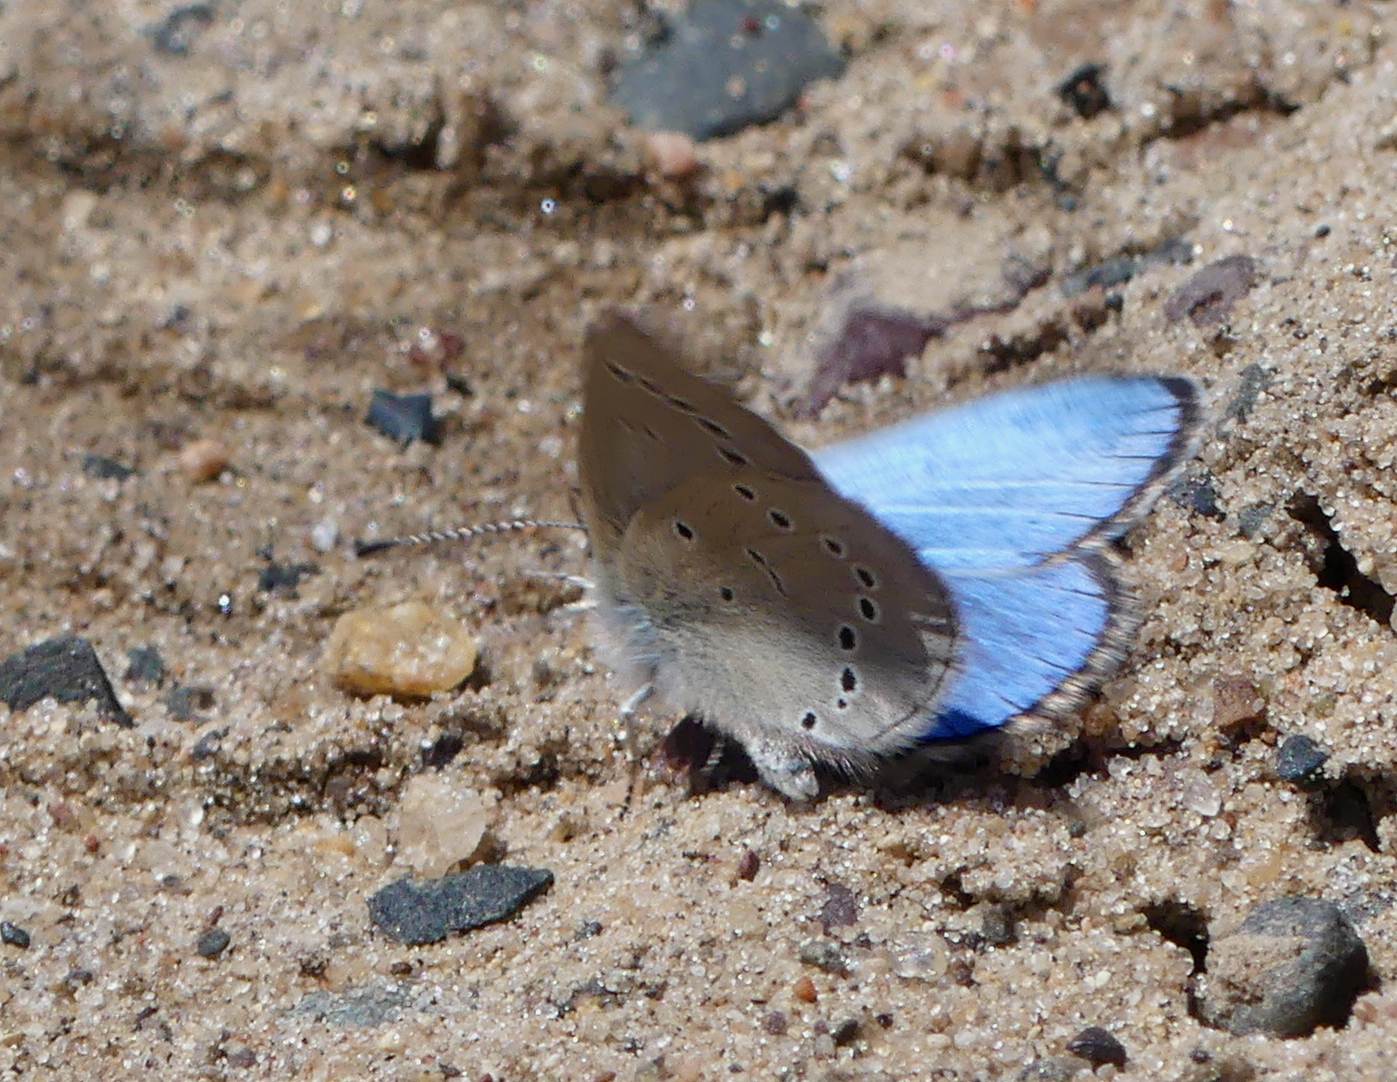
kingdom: Animalia
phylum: Arthropoda
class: Insecta
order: Lepidoptera
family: Lycaenidae
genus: Glaucopsyche
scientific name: Glaucopsyche lygdamus
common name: Silvery blue
